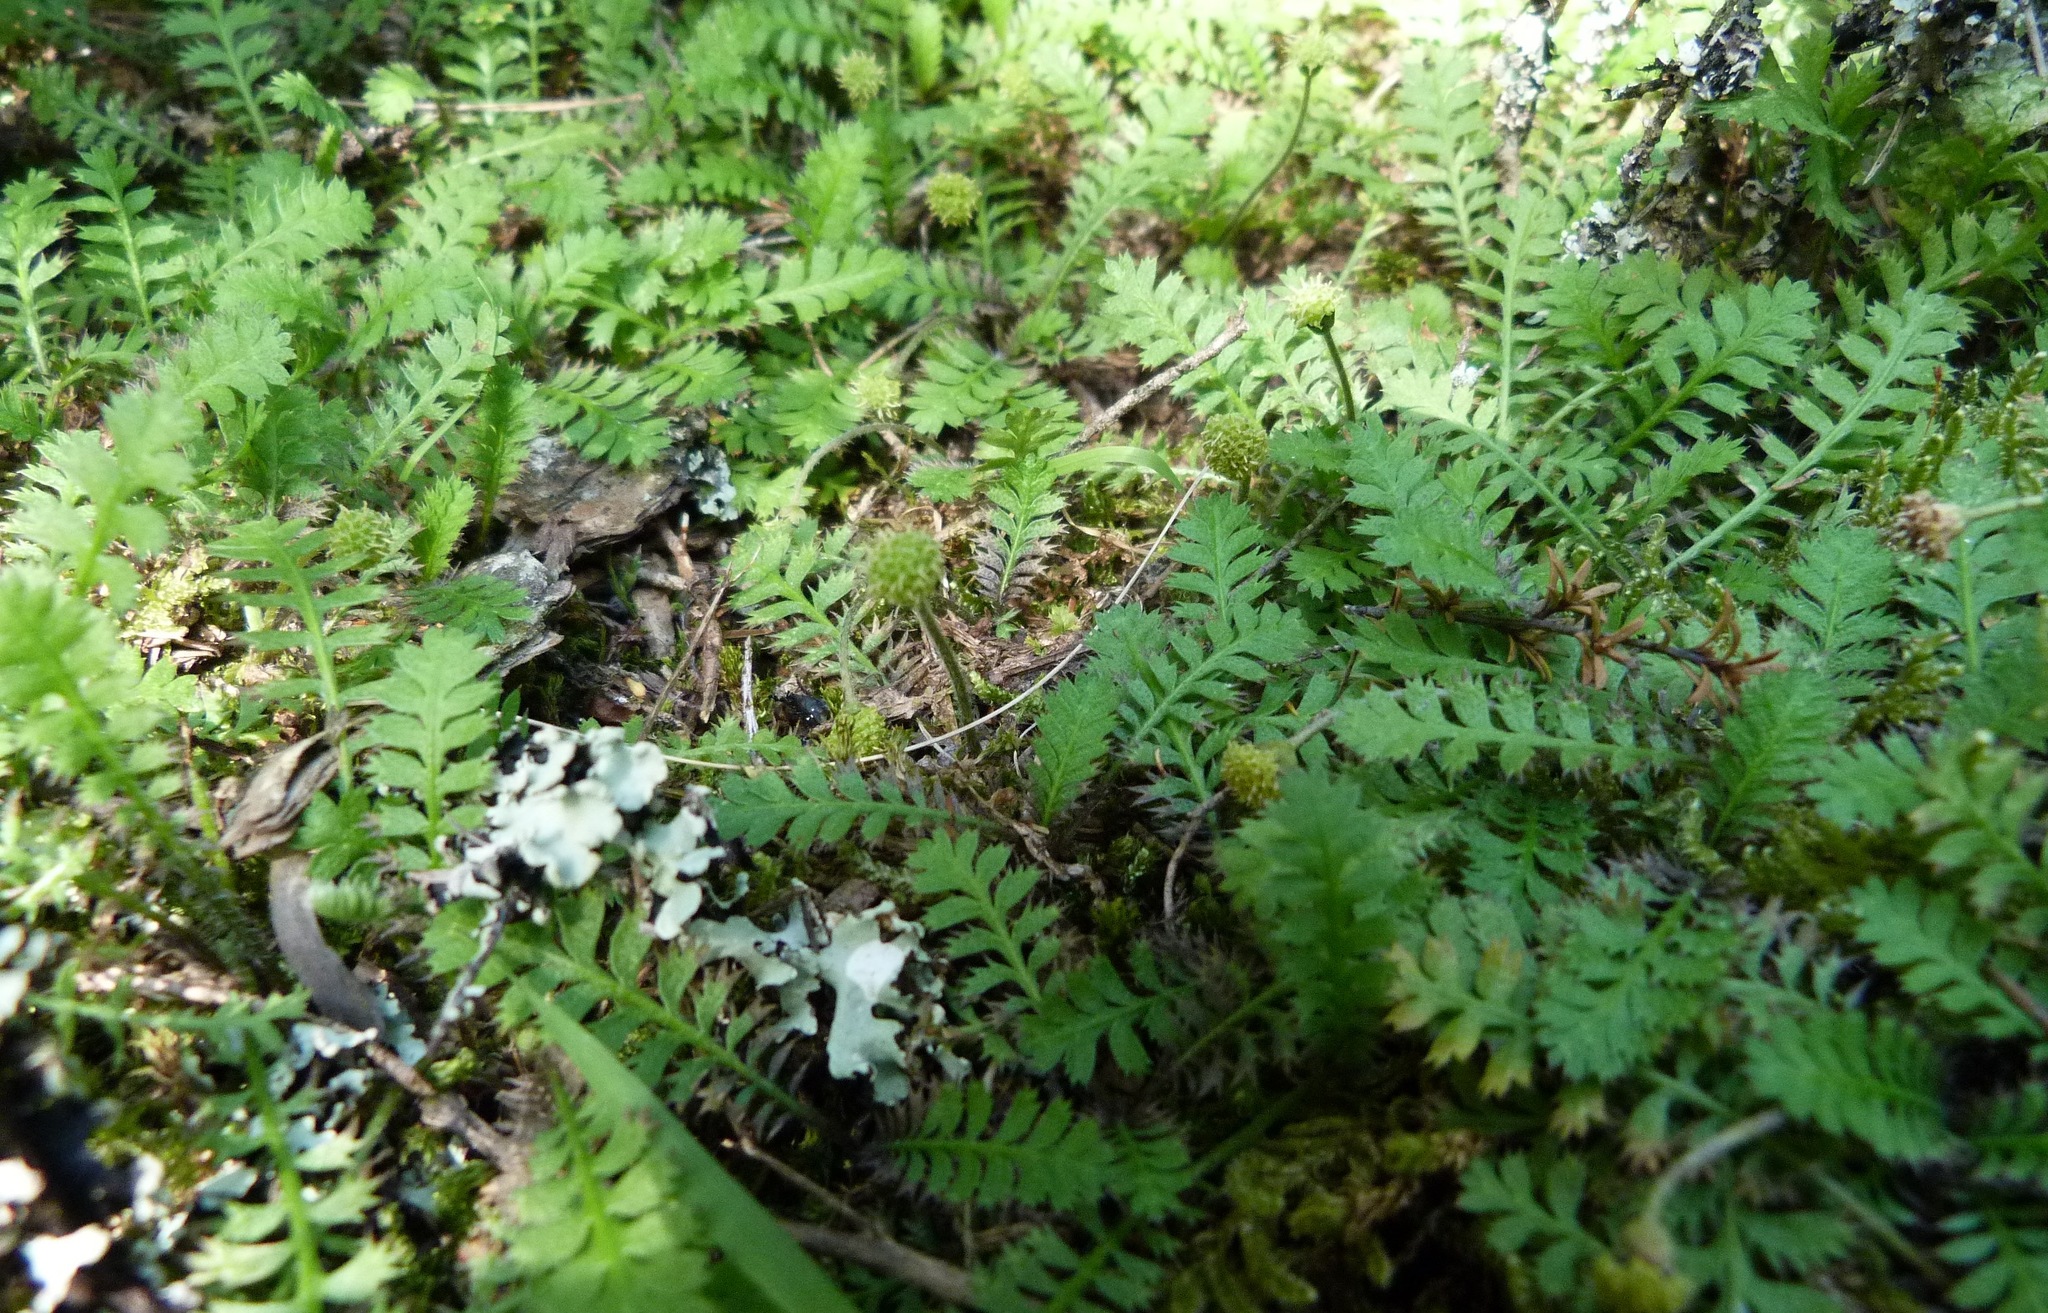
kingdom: Plantae
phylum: Tracheophyta
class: Magnoliopsida
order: Asterales
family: Asteraceae
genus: Leptinella
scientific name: Leptinella squalida
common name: New zealand brass-buttons
